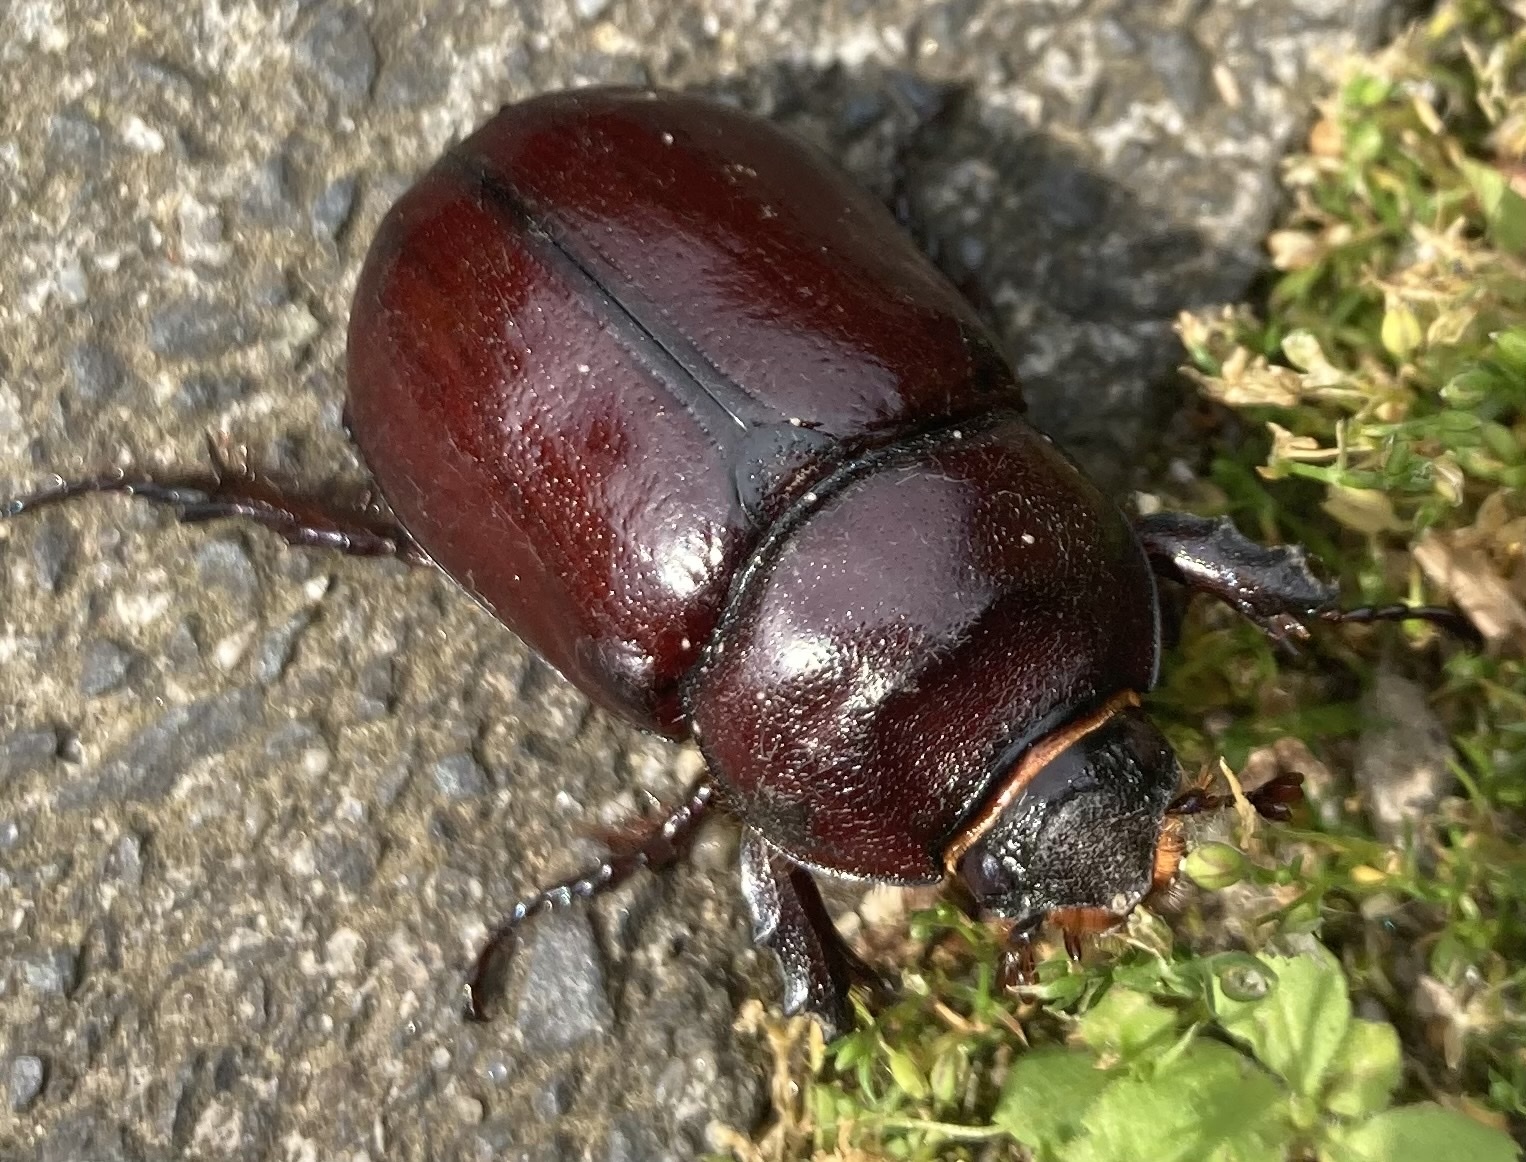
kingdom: Animalia
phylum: Arthropoda
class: Insecta
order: Coleoptera
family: Scarabaeidae
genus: Oryctes
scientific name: Oryctes nasicornis
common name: European rhinoceros beetle
